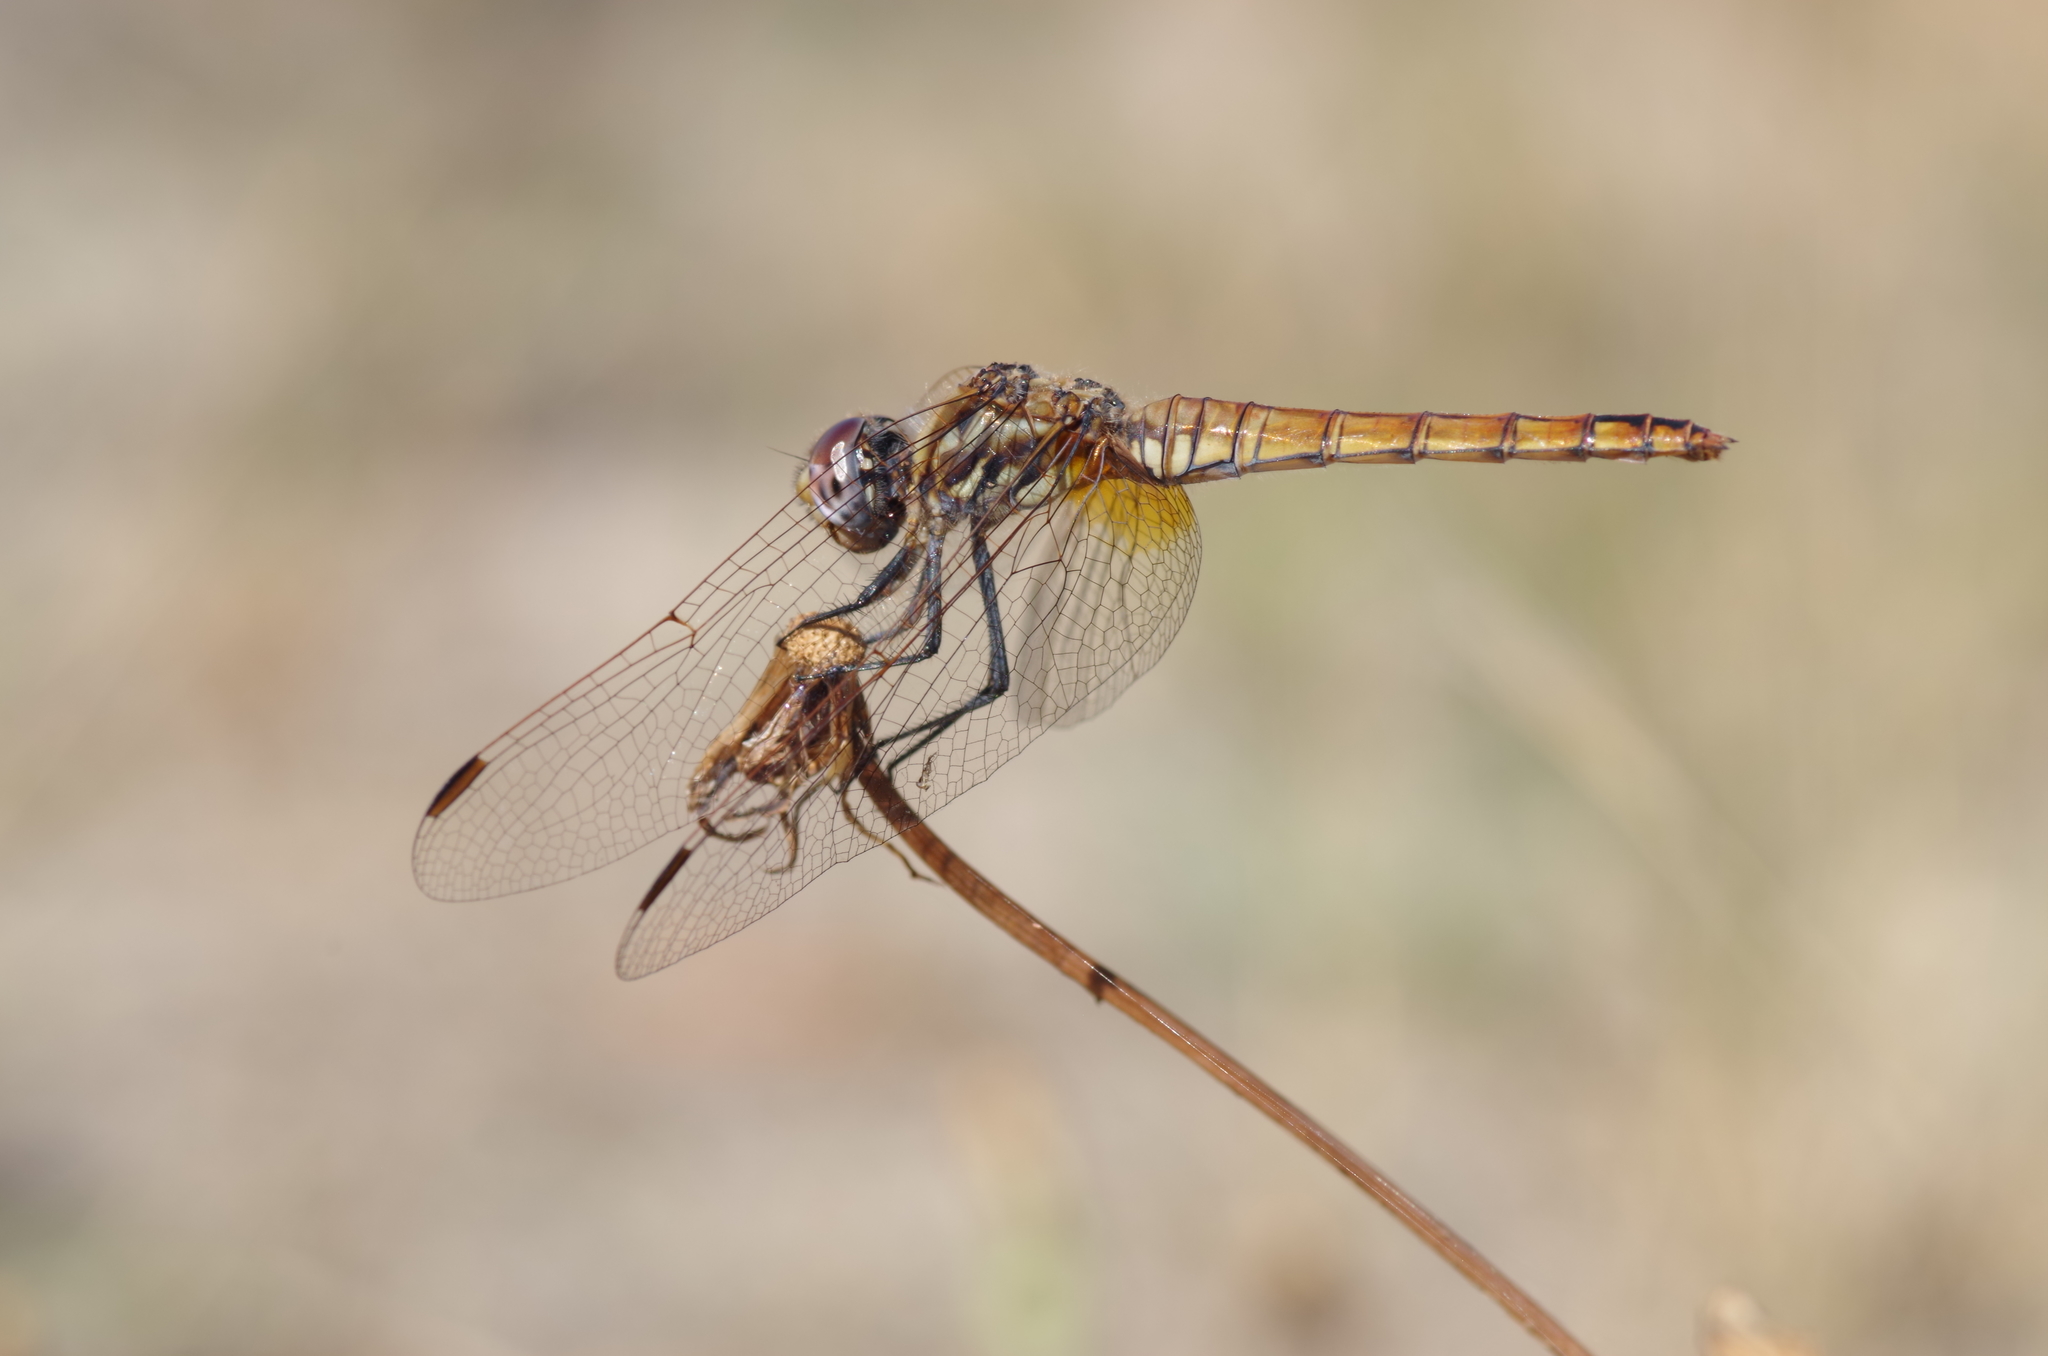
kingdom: Animalia
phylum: Arthropoda
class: Insecta
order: Odonata
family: Libellulidae
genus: Trithemis
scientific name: Trithemis annulata
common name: Violet dropwing
